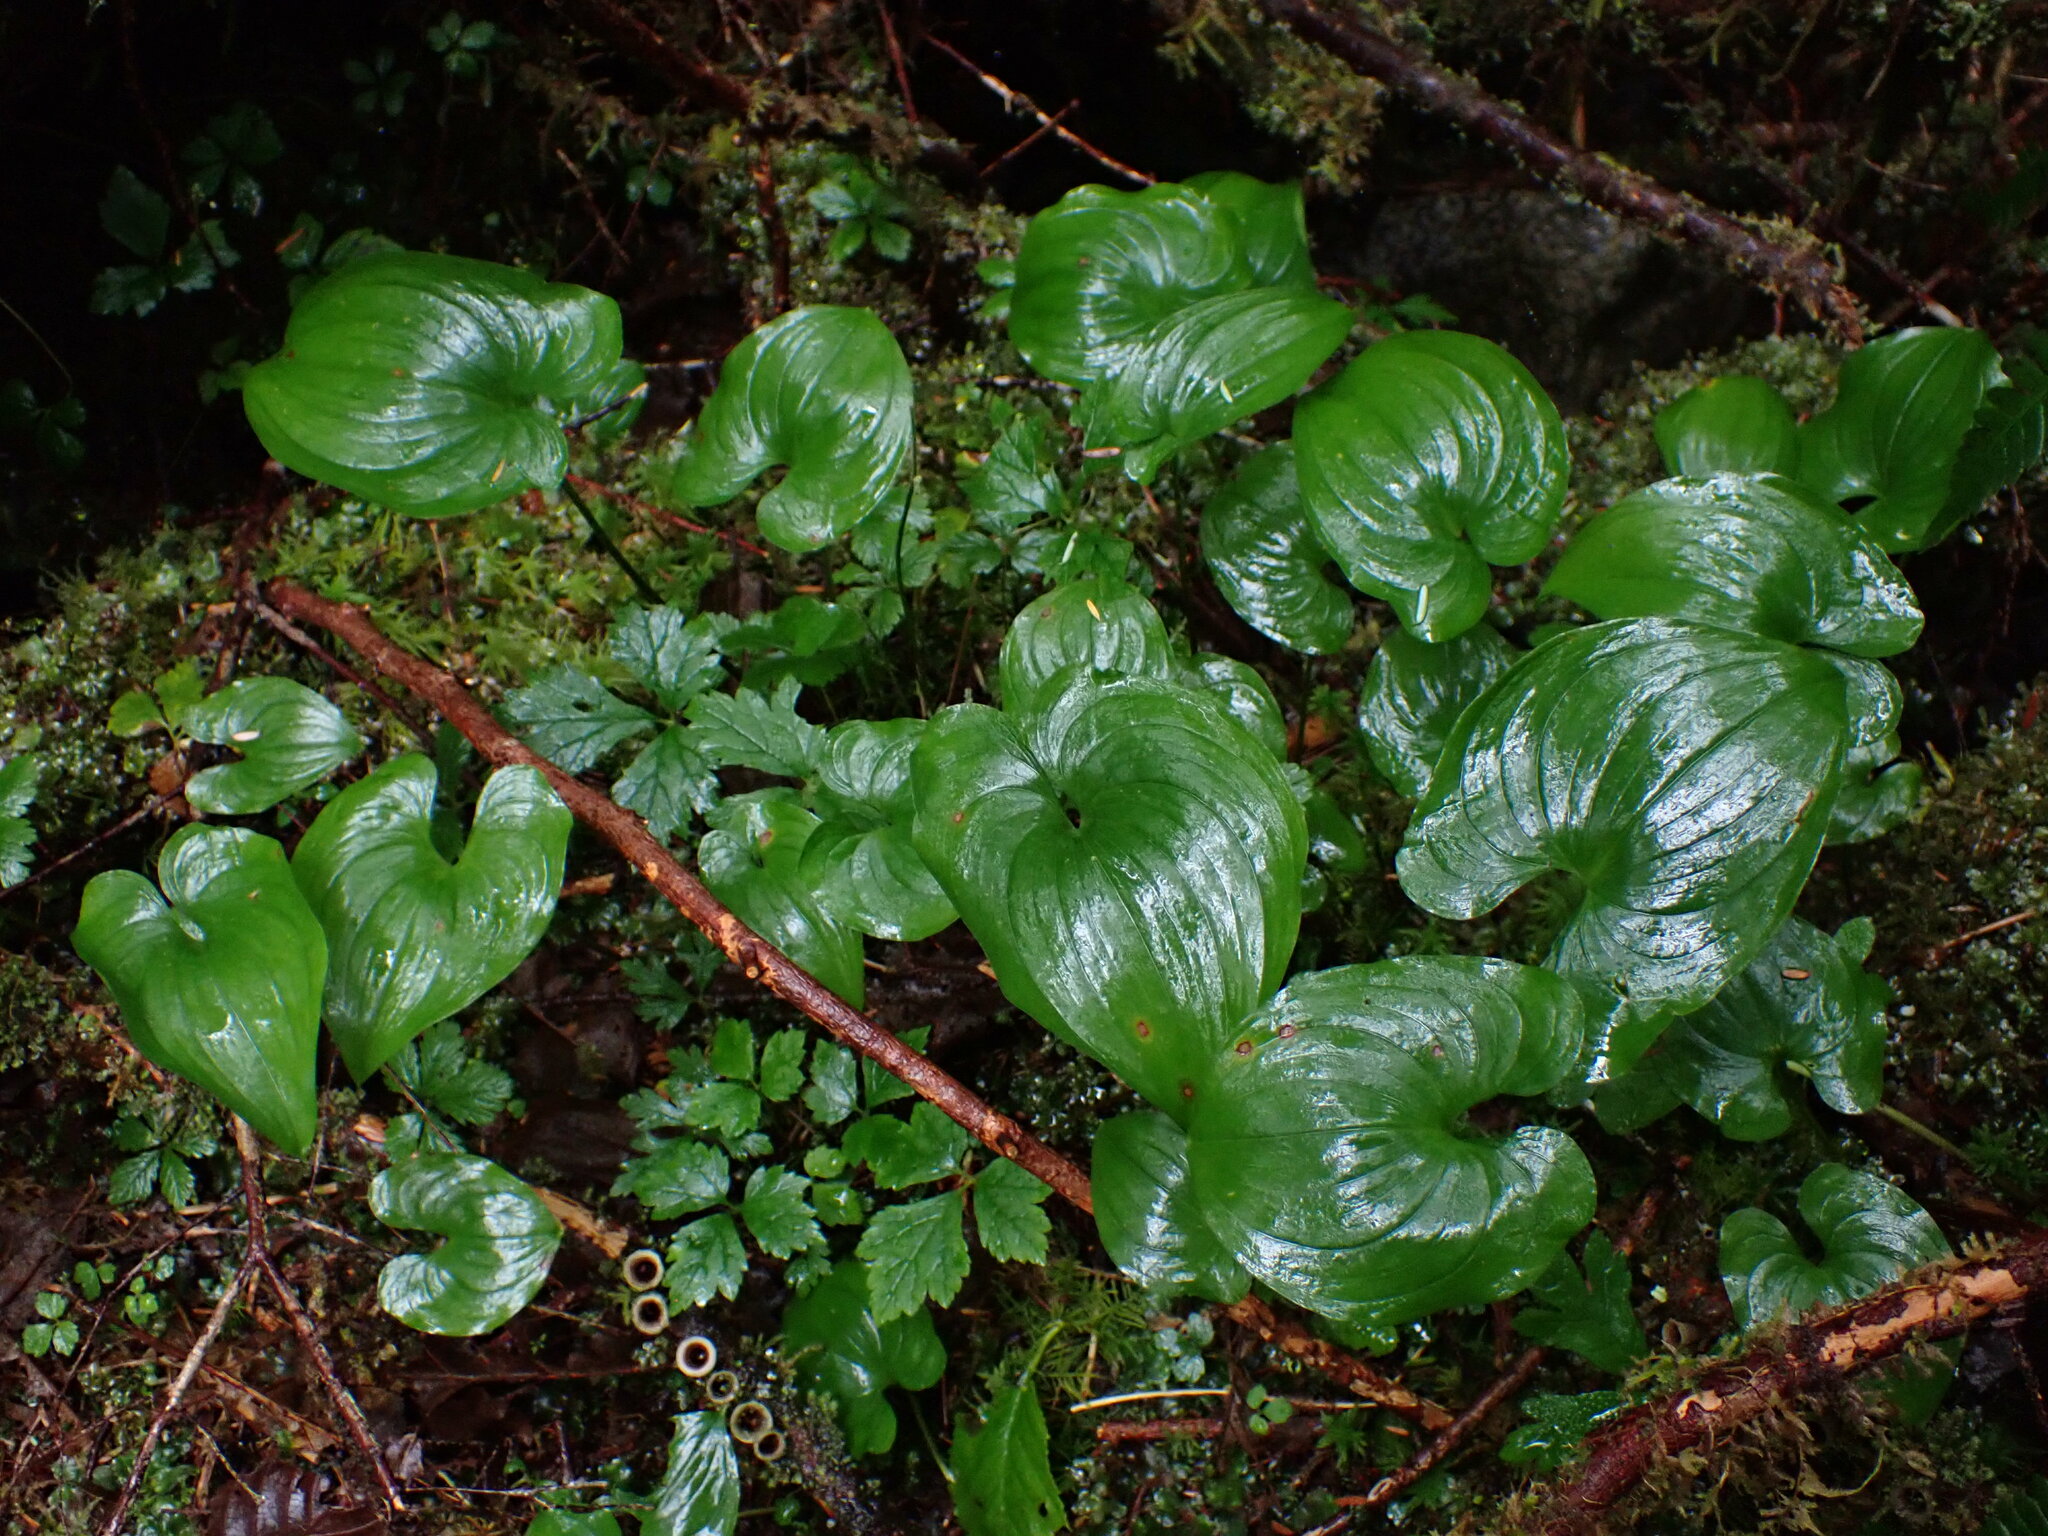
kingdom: Plantae
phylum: Tracheophyta
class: Liliopsida
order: Asparagales
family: Asparagaceae
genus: Maianthemum
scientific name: Maianthemum dilatatum
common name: False lily-of-the-valley
